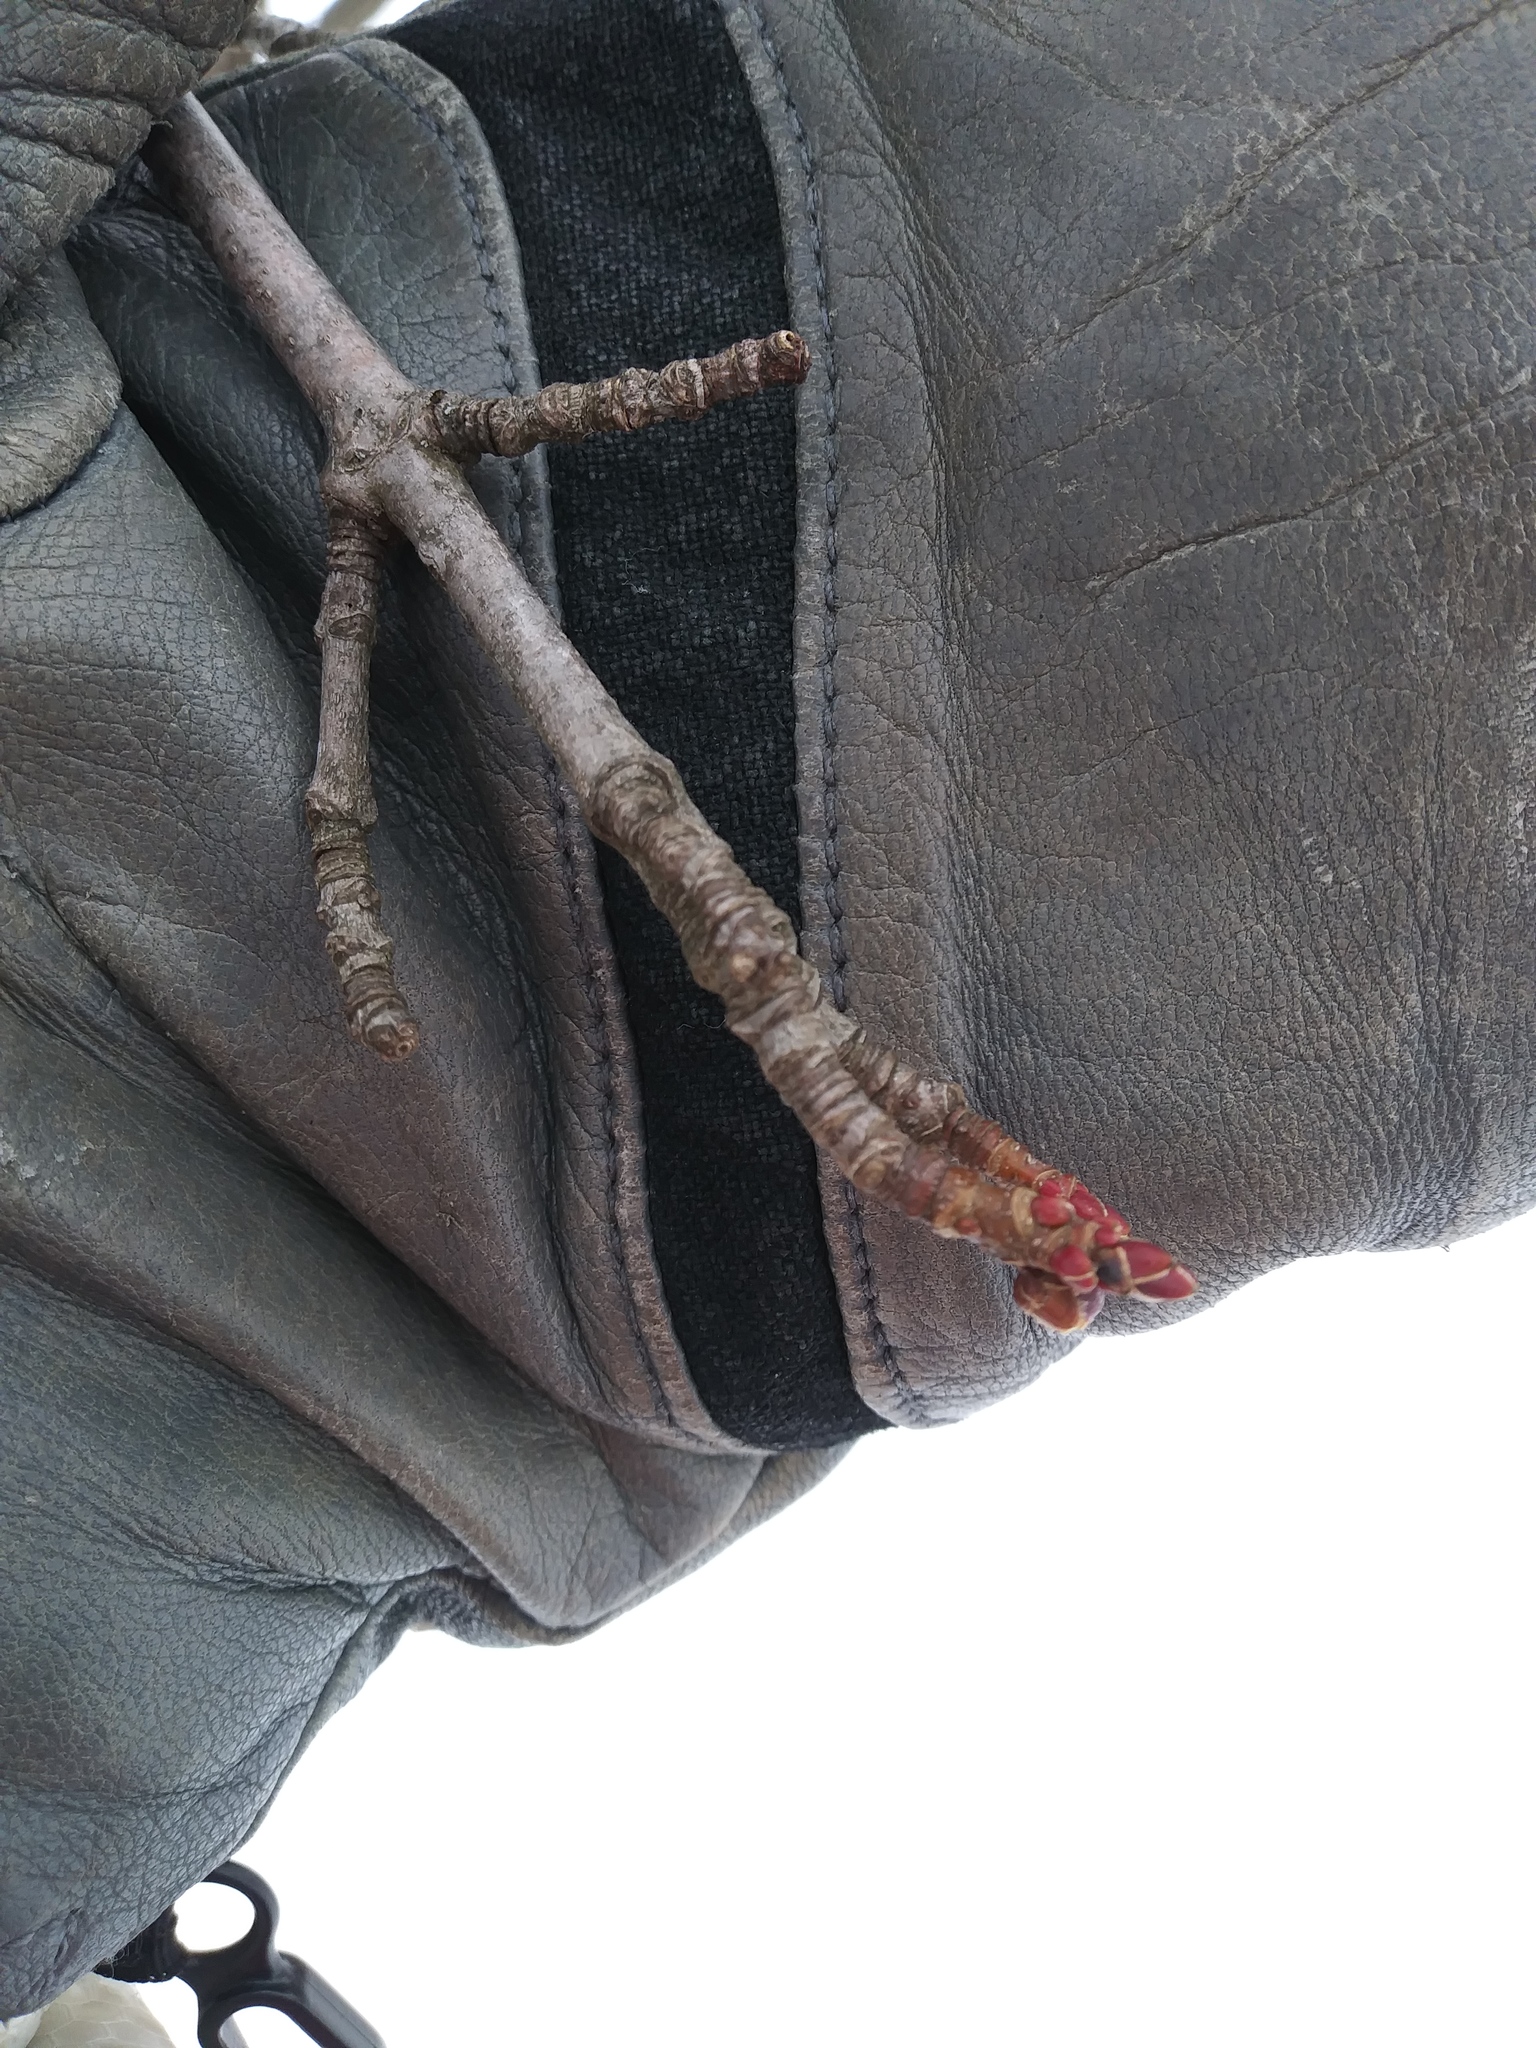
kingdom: Plantae
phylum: Tracheophyta
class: Magnoliopsida
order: Sapindales
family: Sapindaceae
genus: Acer
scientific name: Acer saccharinum
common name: Silver maple
